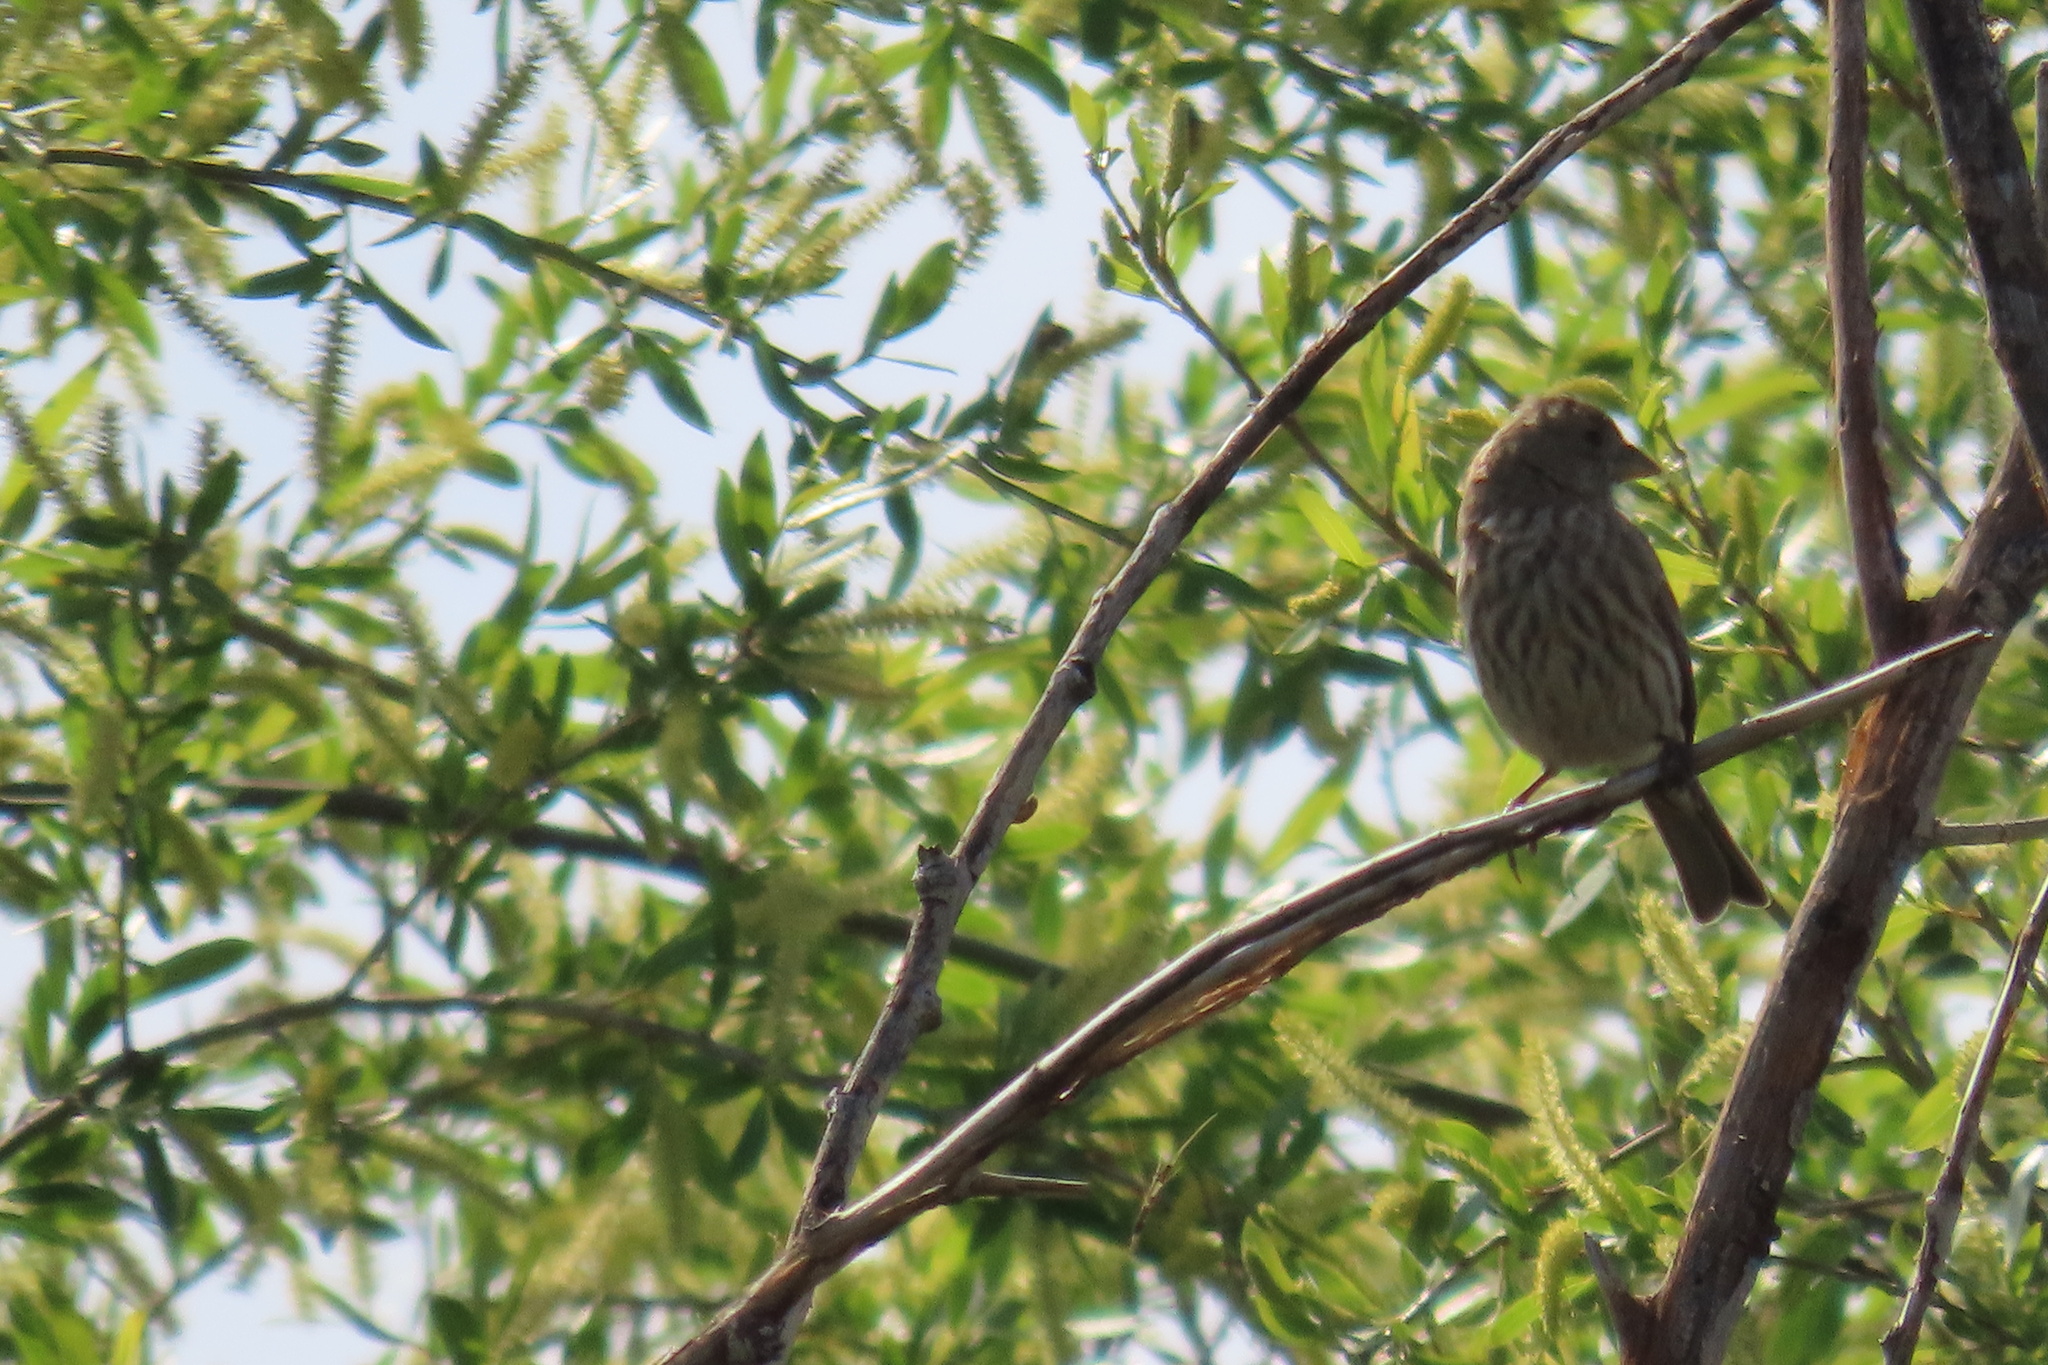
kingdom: Animalia
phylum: Chordata
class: Aves
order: Passeriformes
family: Fringillidae
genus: Haemorhous
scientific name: Haemorhous mexicanus
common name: House finch
